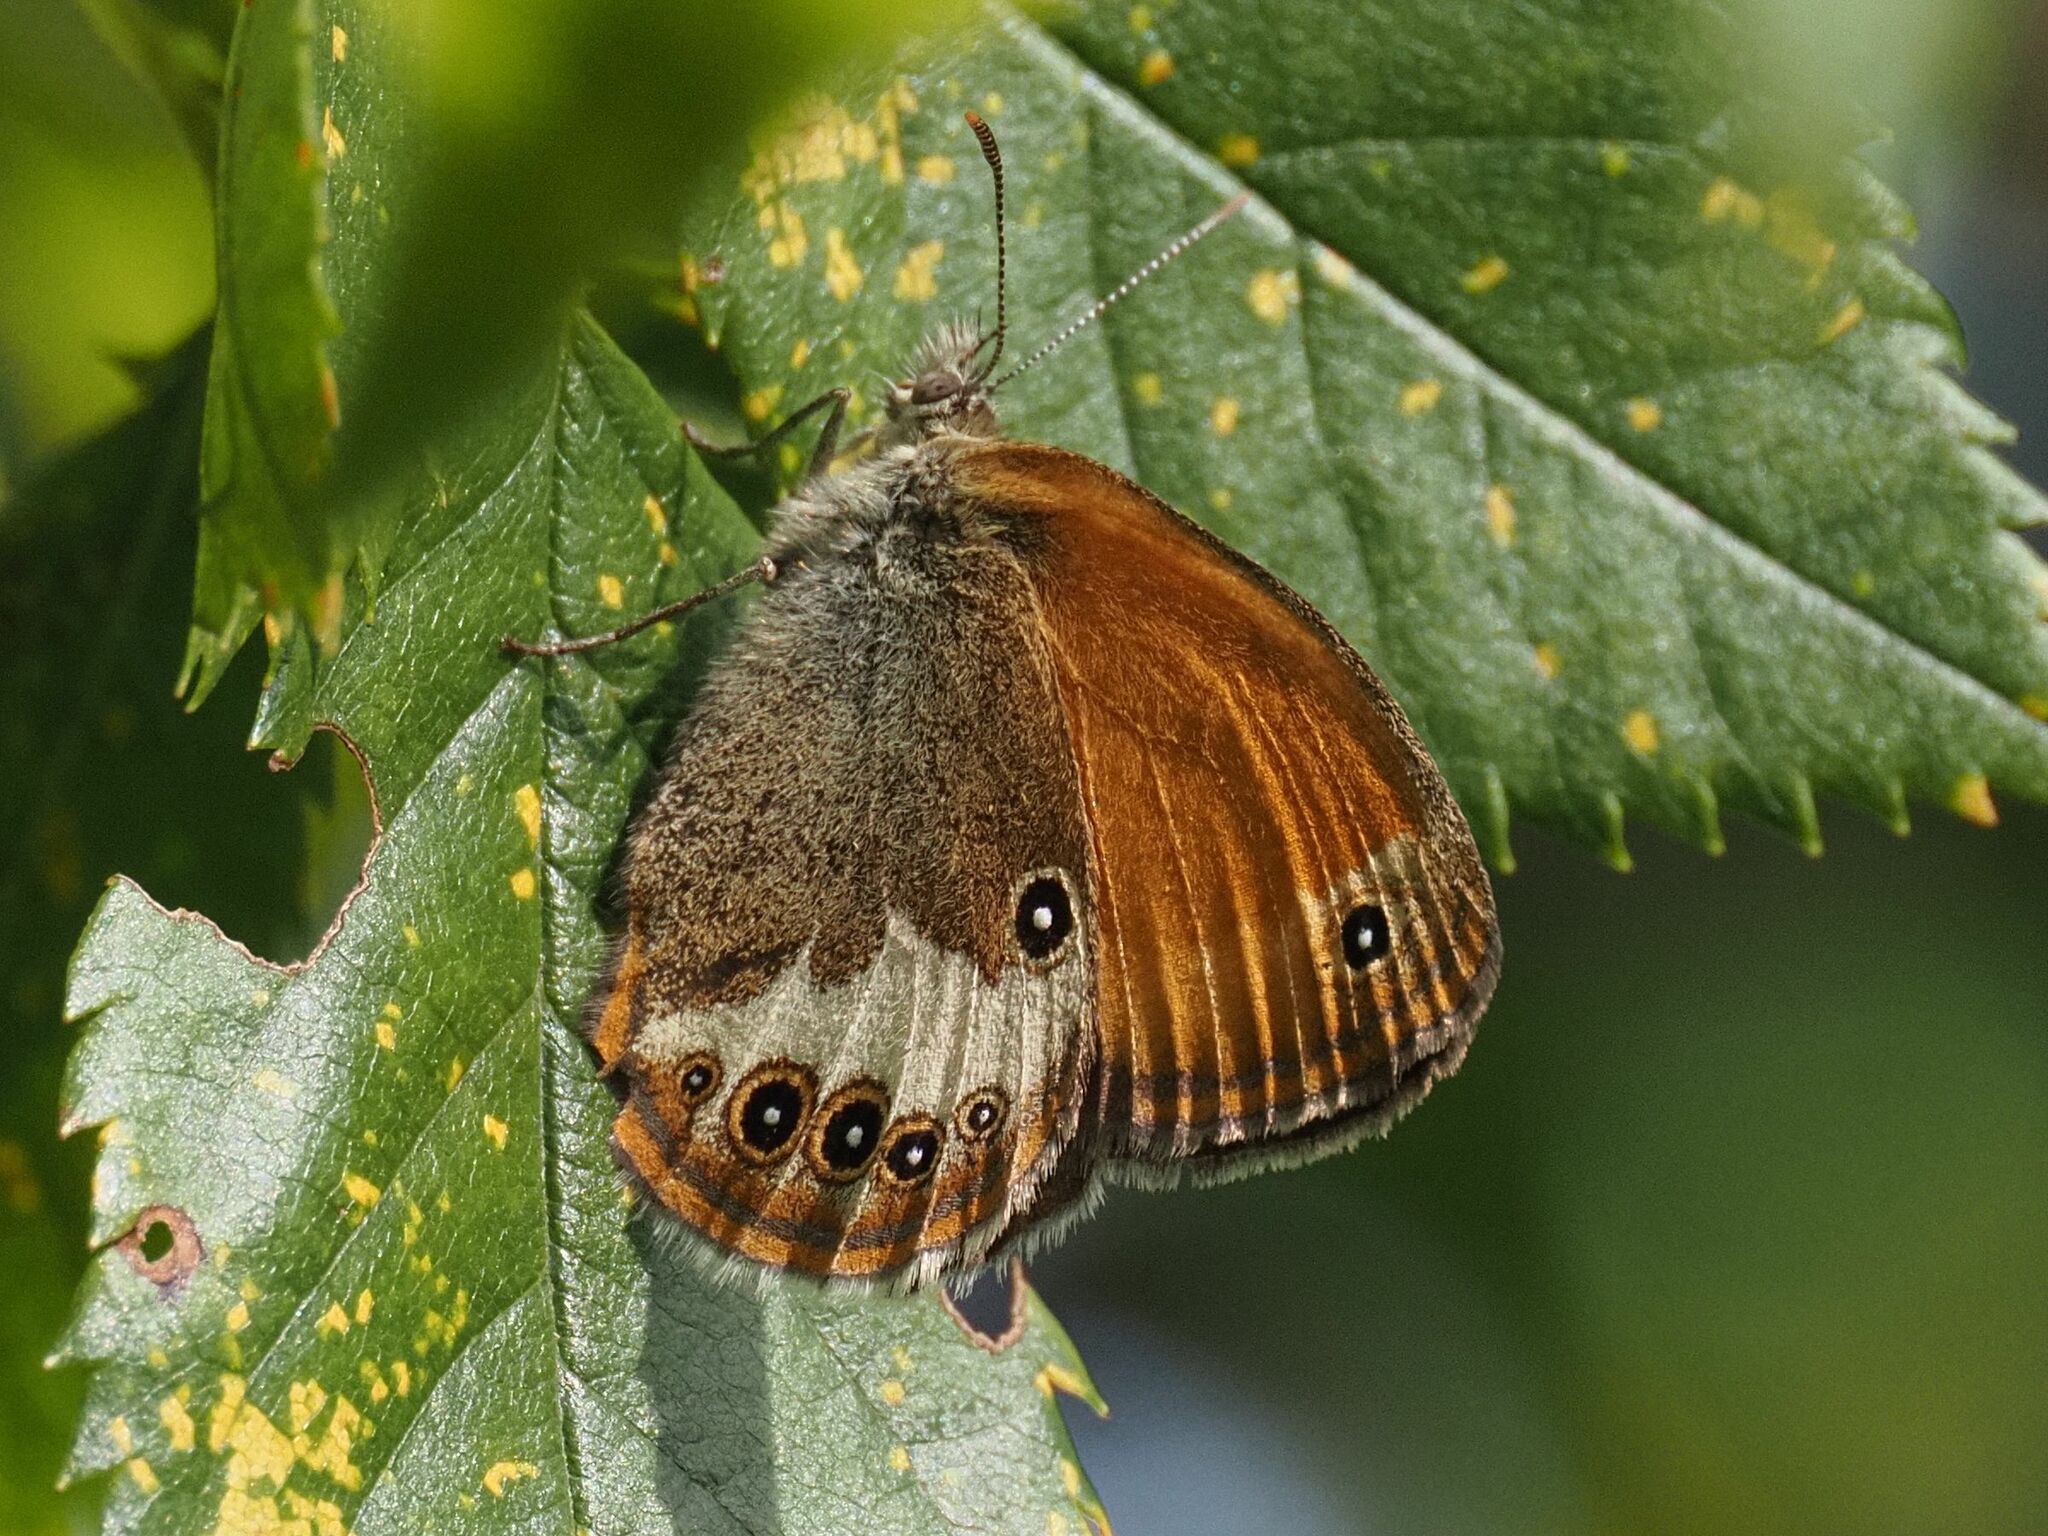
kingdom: Animalia
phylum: Arthropoda
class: Insecta
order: Lepidoptera
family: Nymphalidae
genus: Coenonympha
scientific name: Coenonympha arcania
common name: Pearly heath
